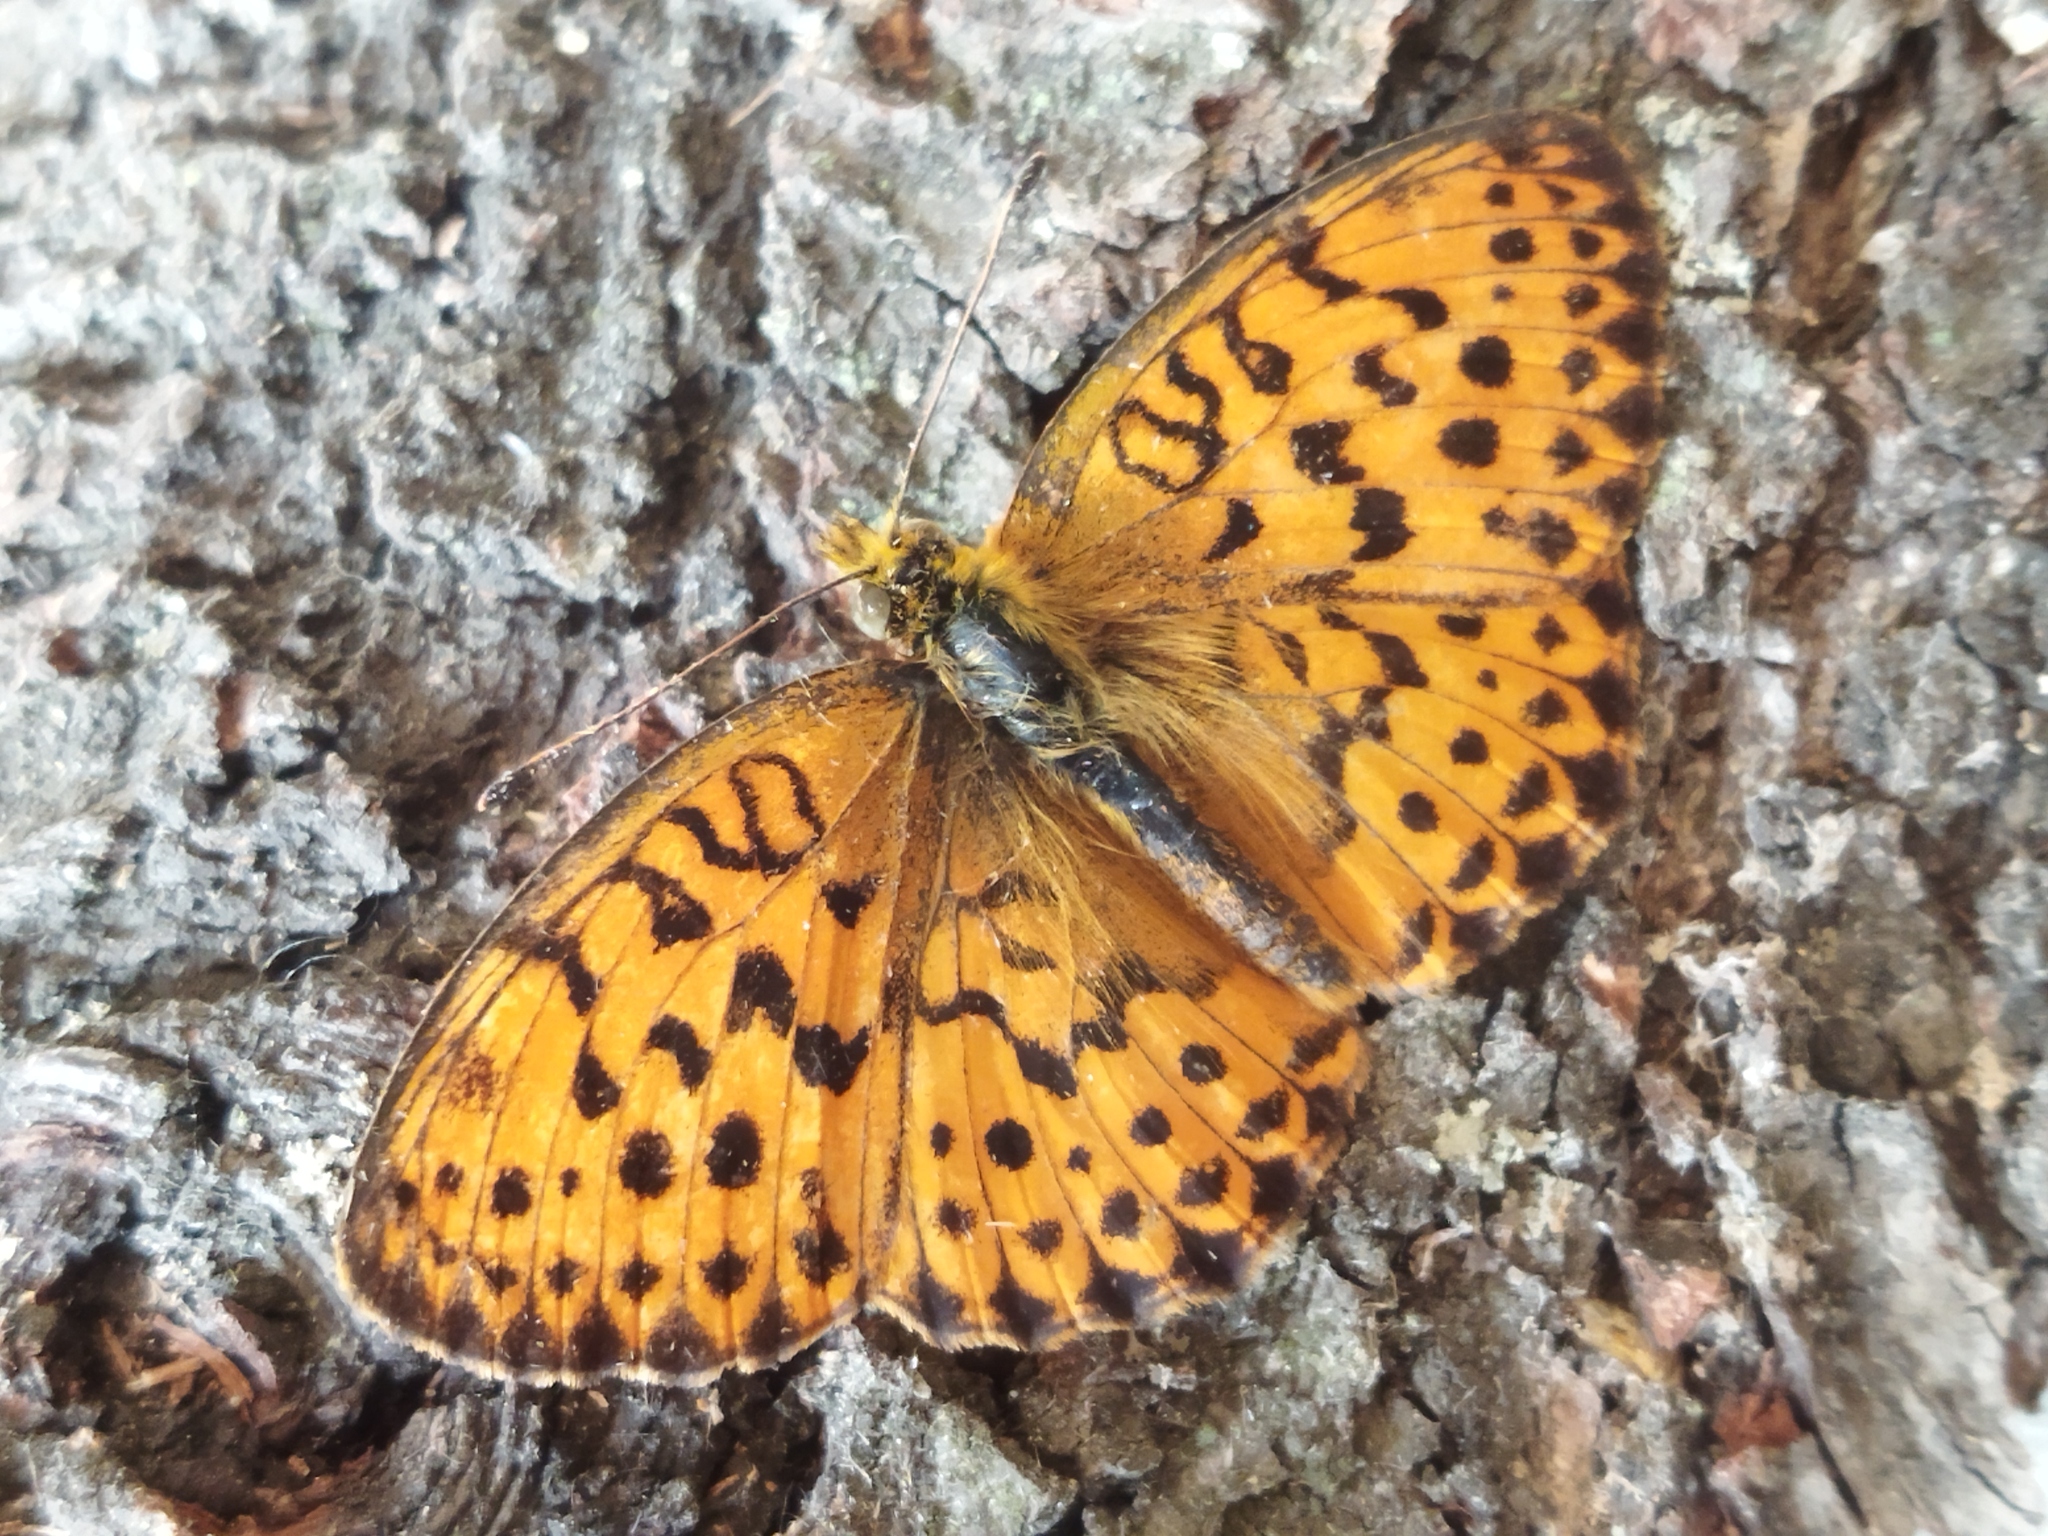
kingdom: Animalia
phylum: Arthropoda
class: Insecta
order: Lepidoptera
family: Nymphalidae
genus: Brenthis
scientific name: Brenthis daphne
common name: Marbled fritillary
